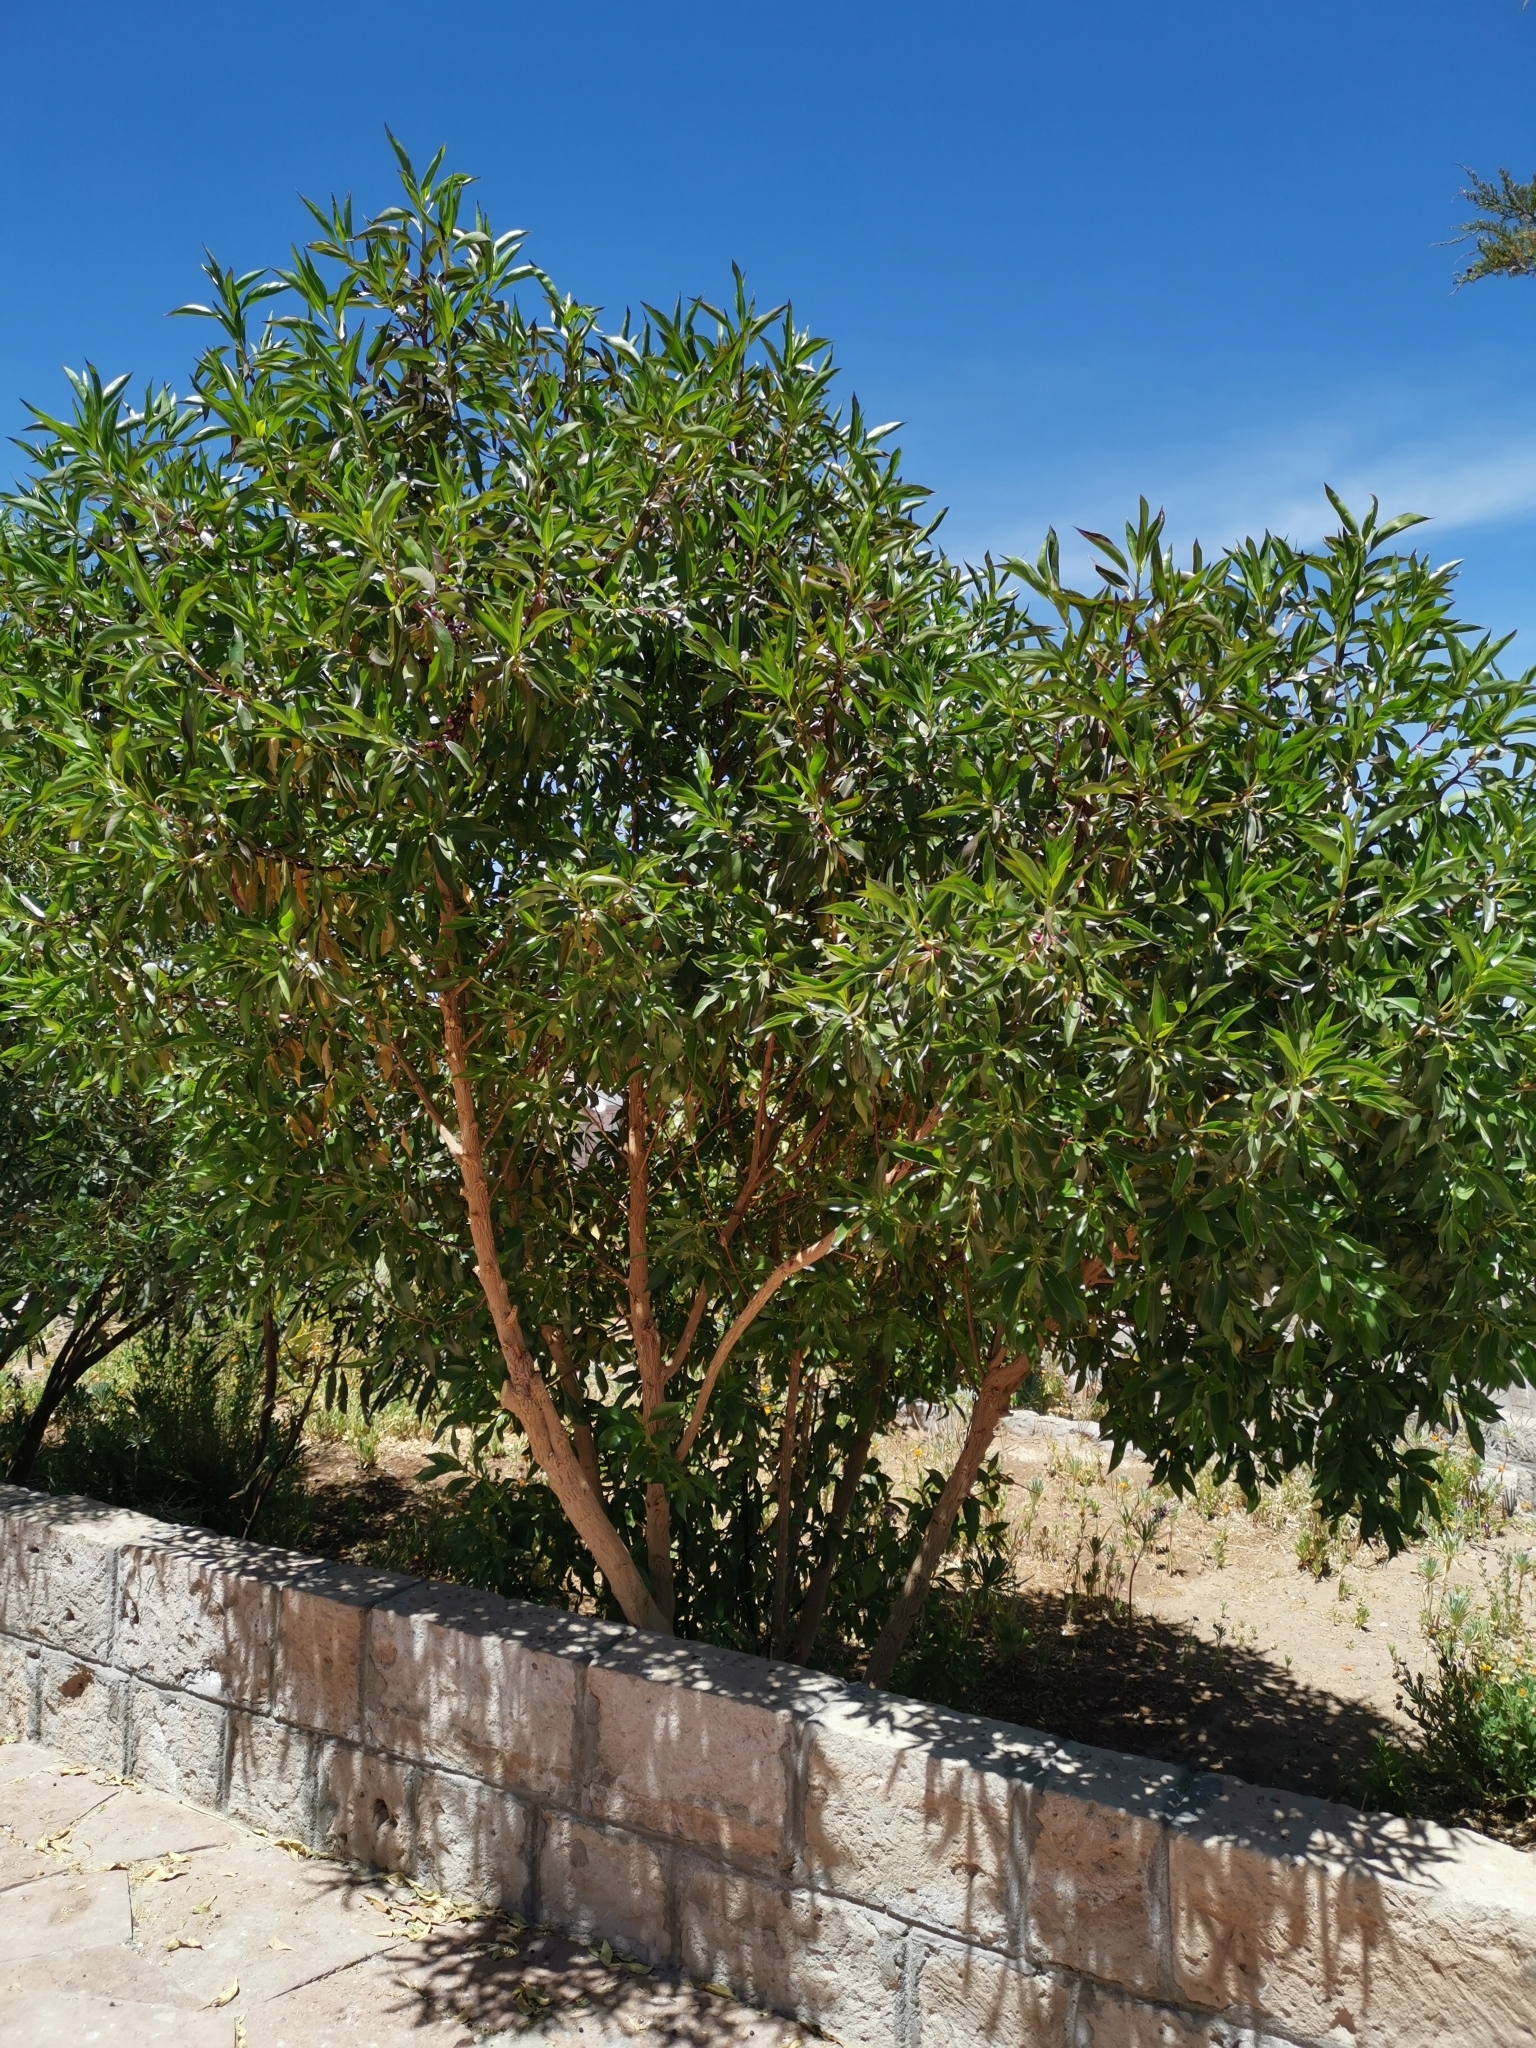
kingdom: Plantae
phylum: Tracheophyta
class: Magnoliopsida
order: Lamiales
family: Scrophulariaceae
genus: Myoporum
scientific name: Myoporum laetum
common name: Ngaio tree
